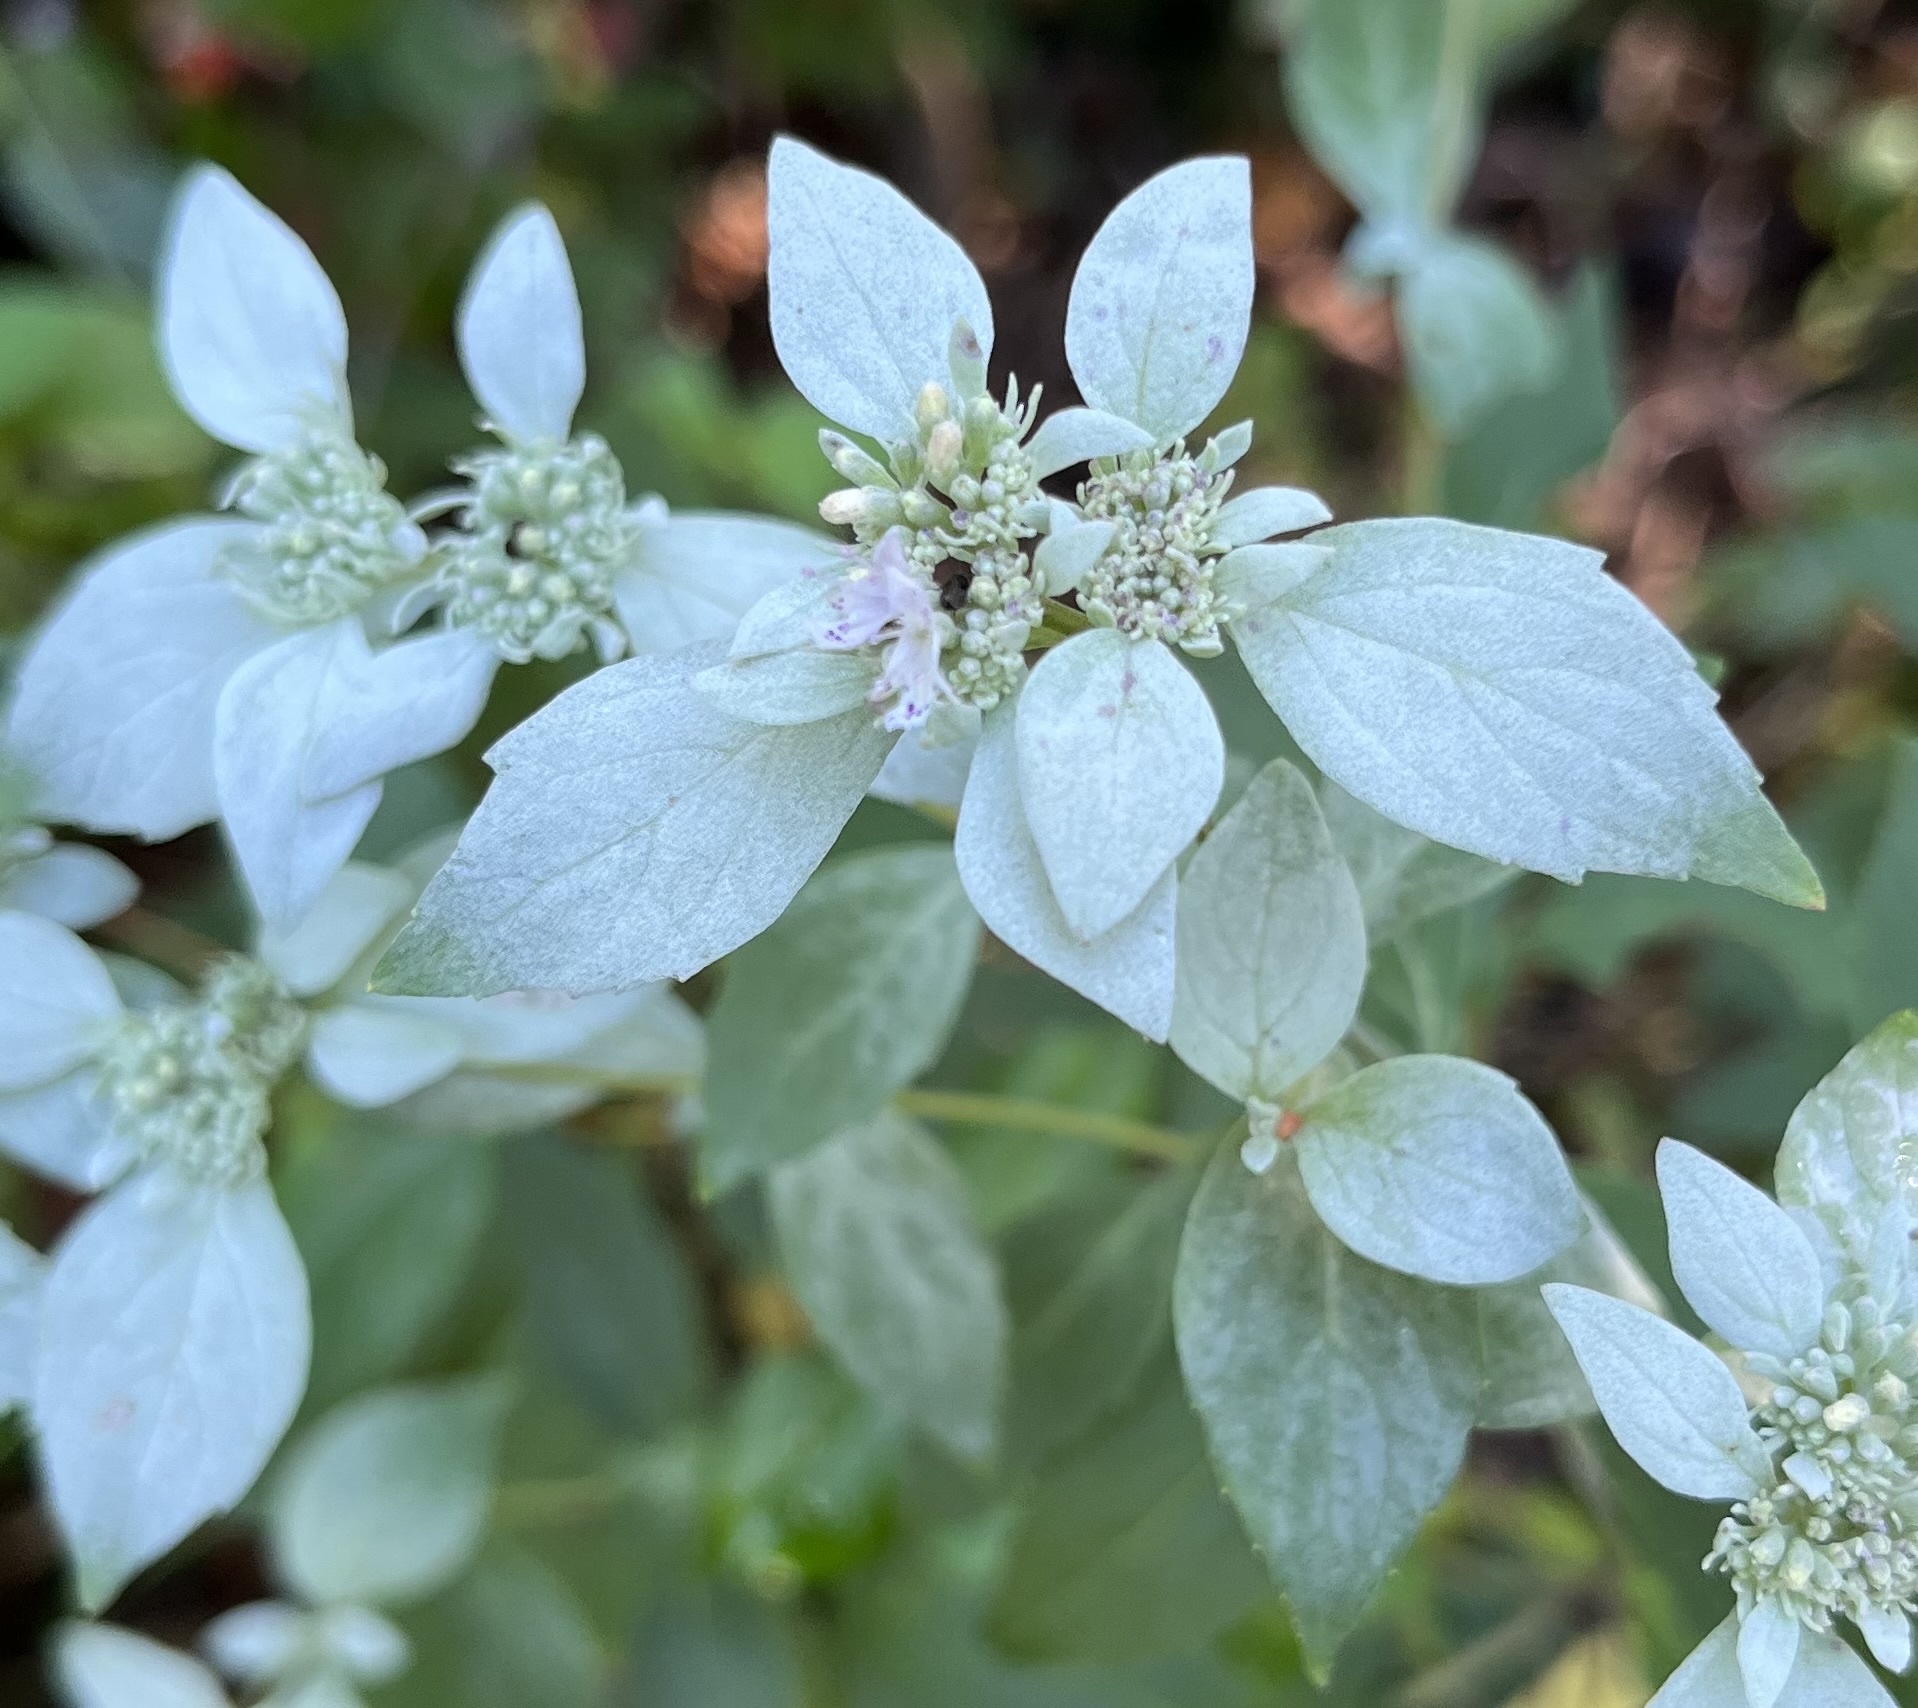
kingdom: Plantae
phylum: Tracheophyta
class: Magnoliopsida
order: Lamiales
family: Lamiaceae
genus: Pycnanthemum
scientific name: Pycnanthemum albescens
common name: White-leaf mountain-mint
